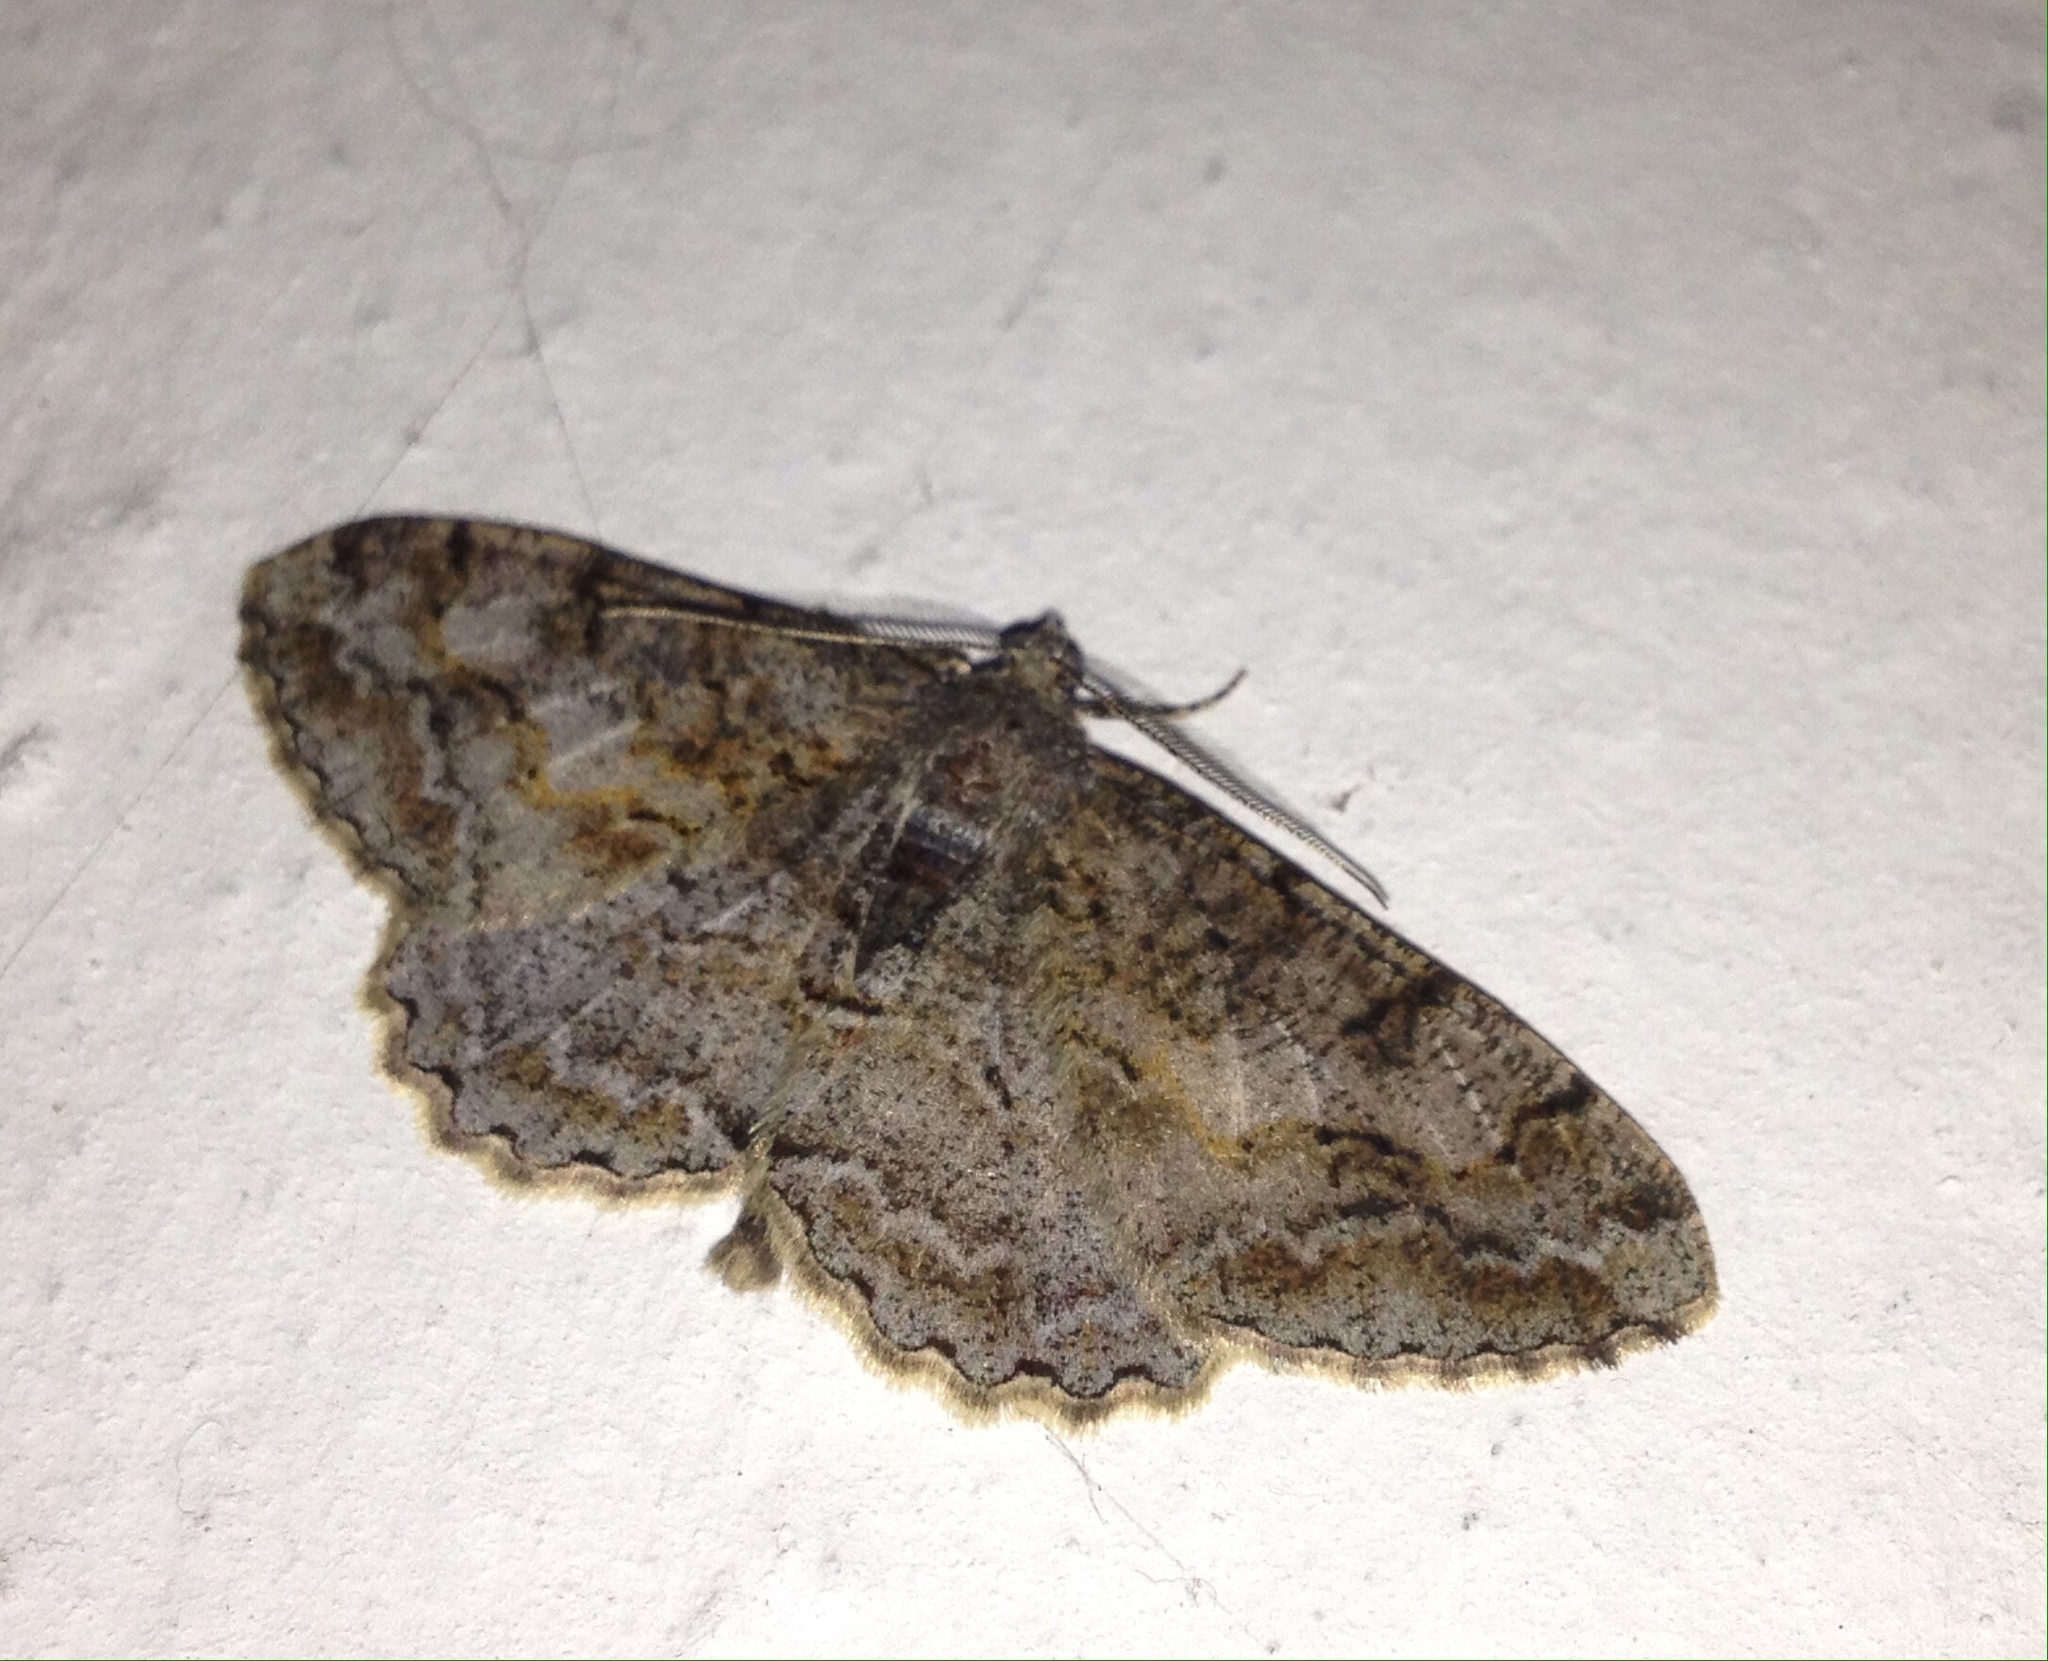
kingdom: Animalia
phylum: Arthropoda
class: Insecta
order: Lepidoptera
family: Geometridae
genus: Alcis
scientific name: Alcis repandata
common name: Mottled beauty
